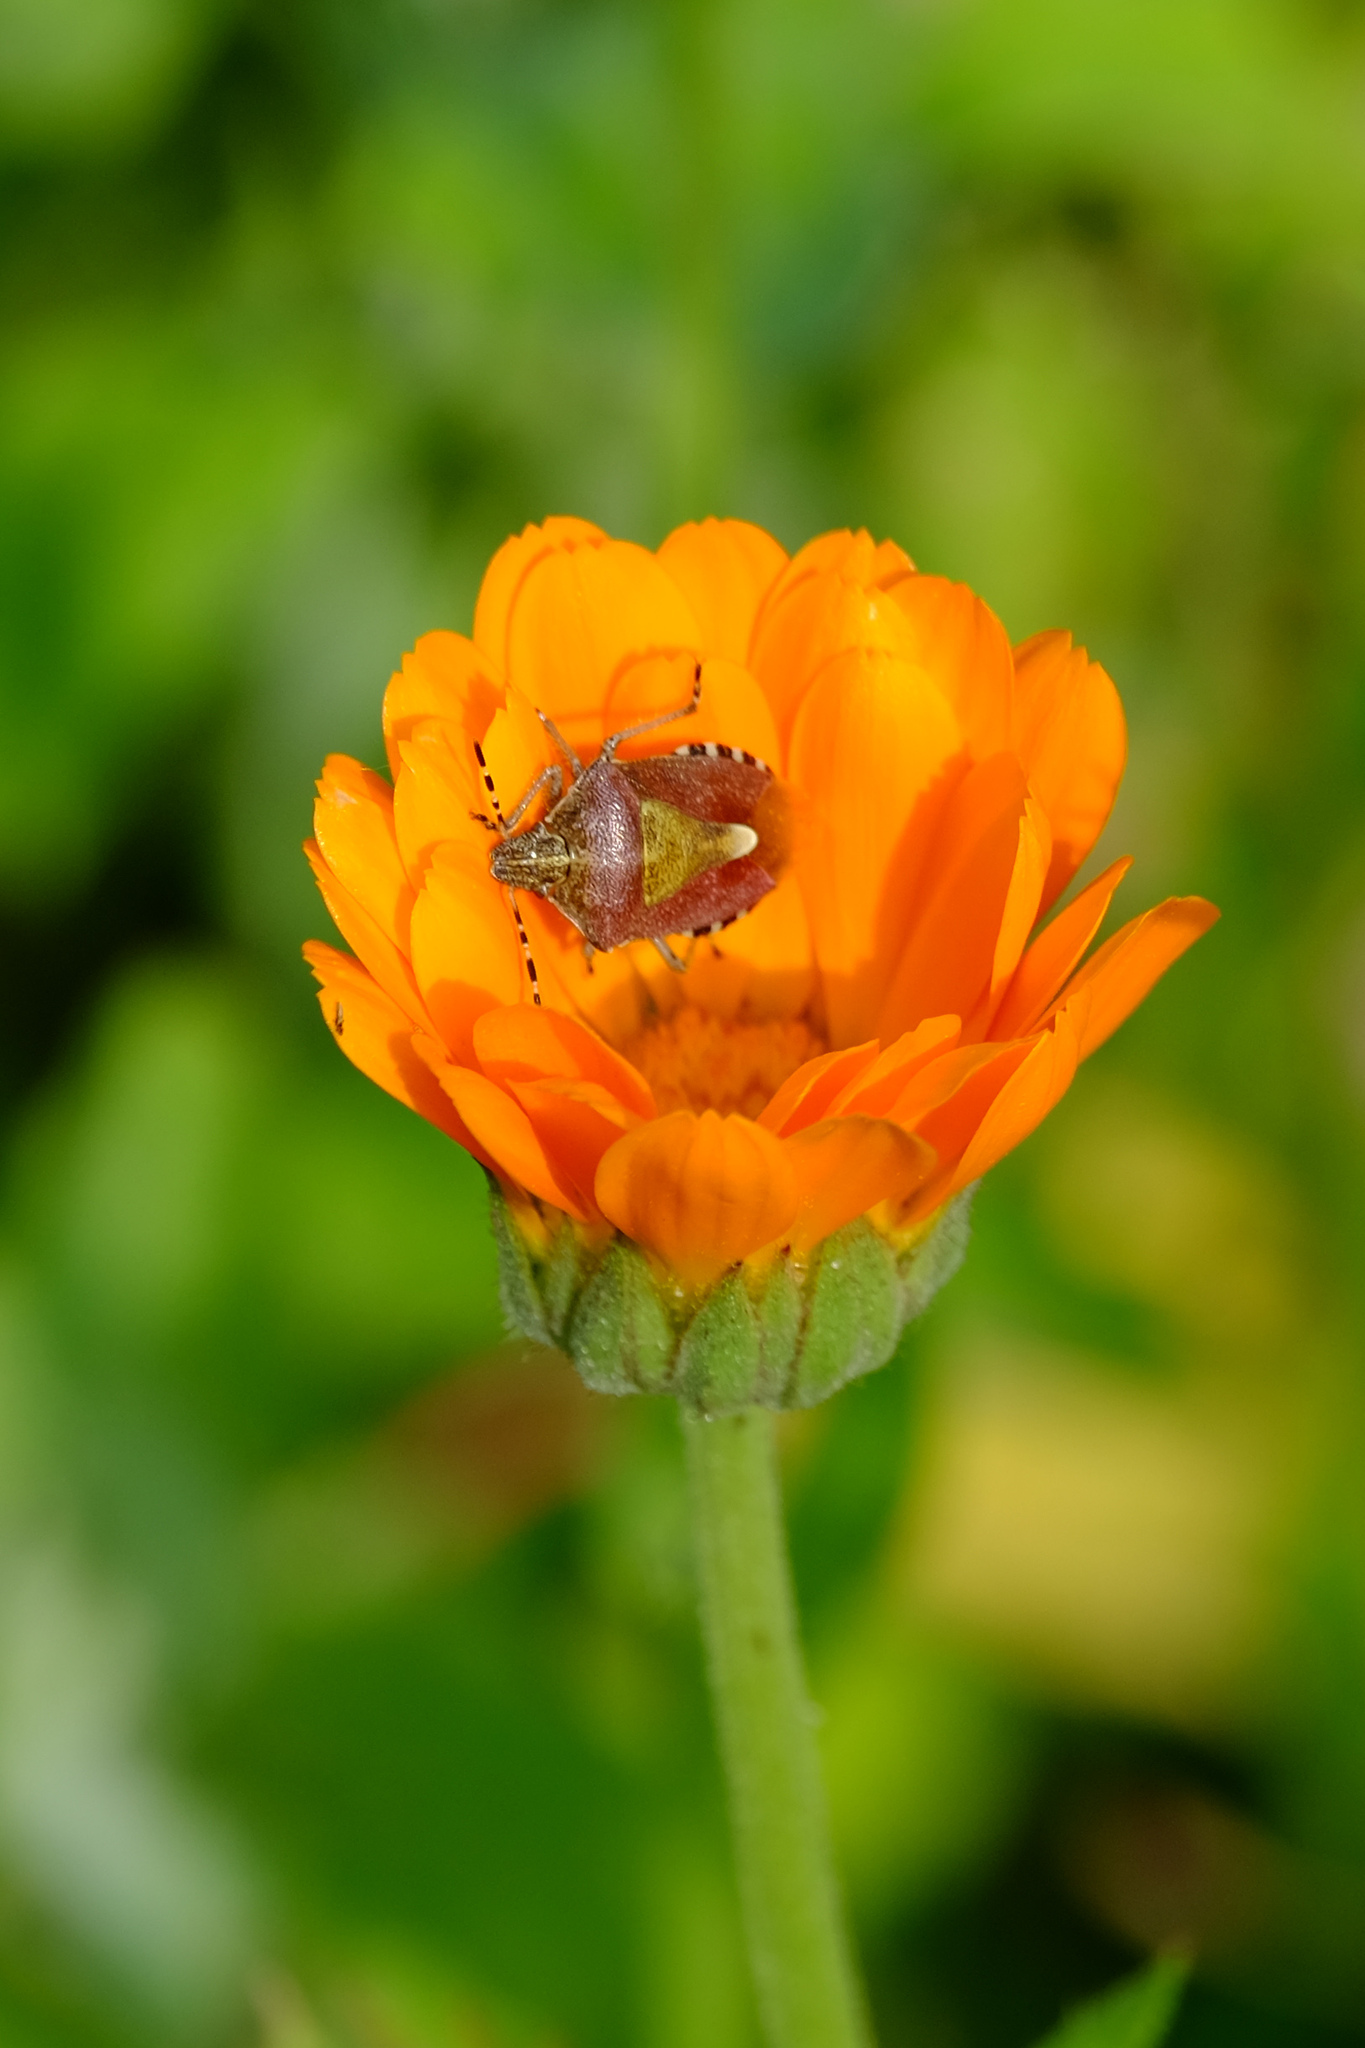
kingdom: Animalia
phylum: Arthropoda
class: Insecta
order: Hemiptera
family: Pentatomidae
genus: Dolycoris
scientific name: Dolycoris baccarum
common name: Sloe bug
